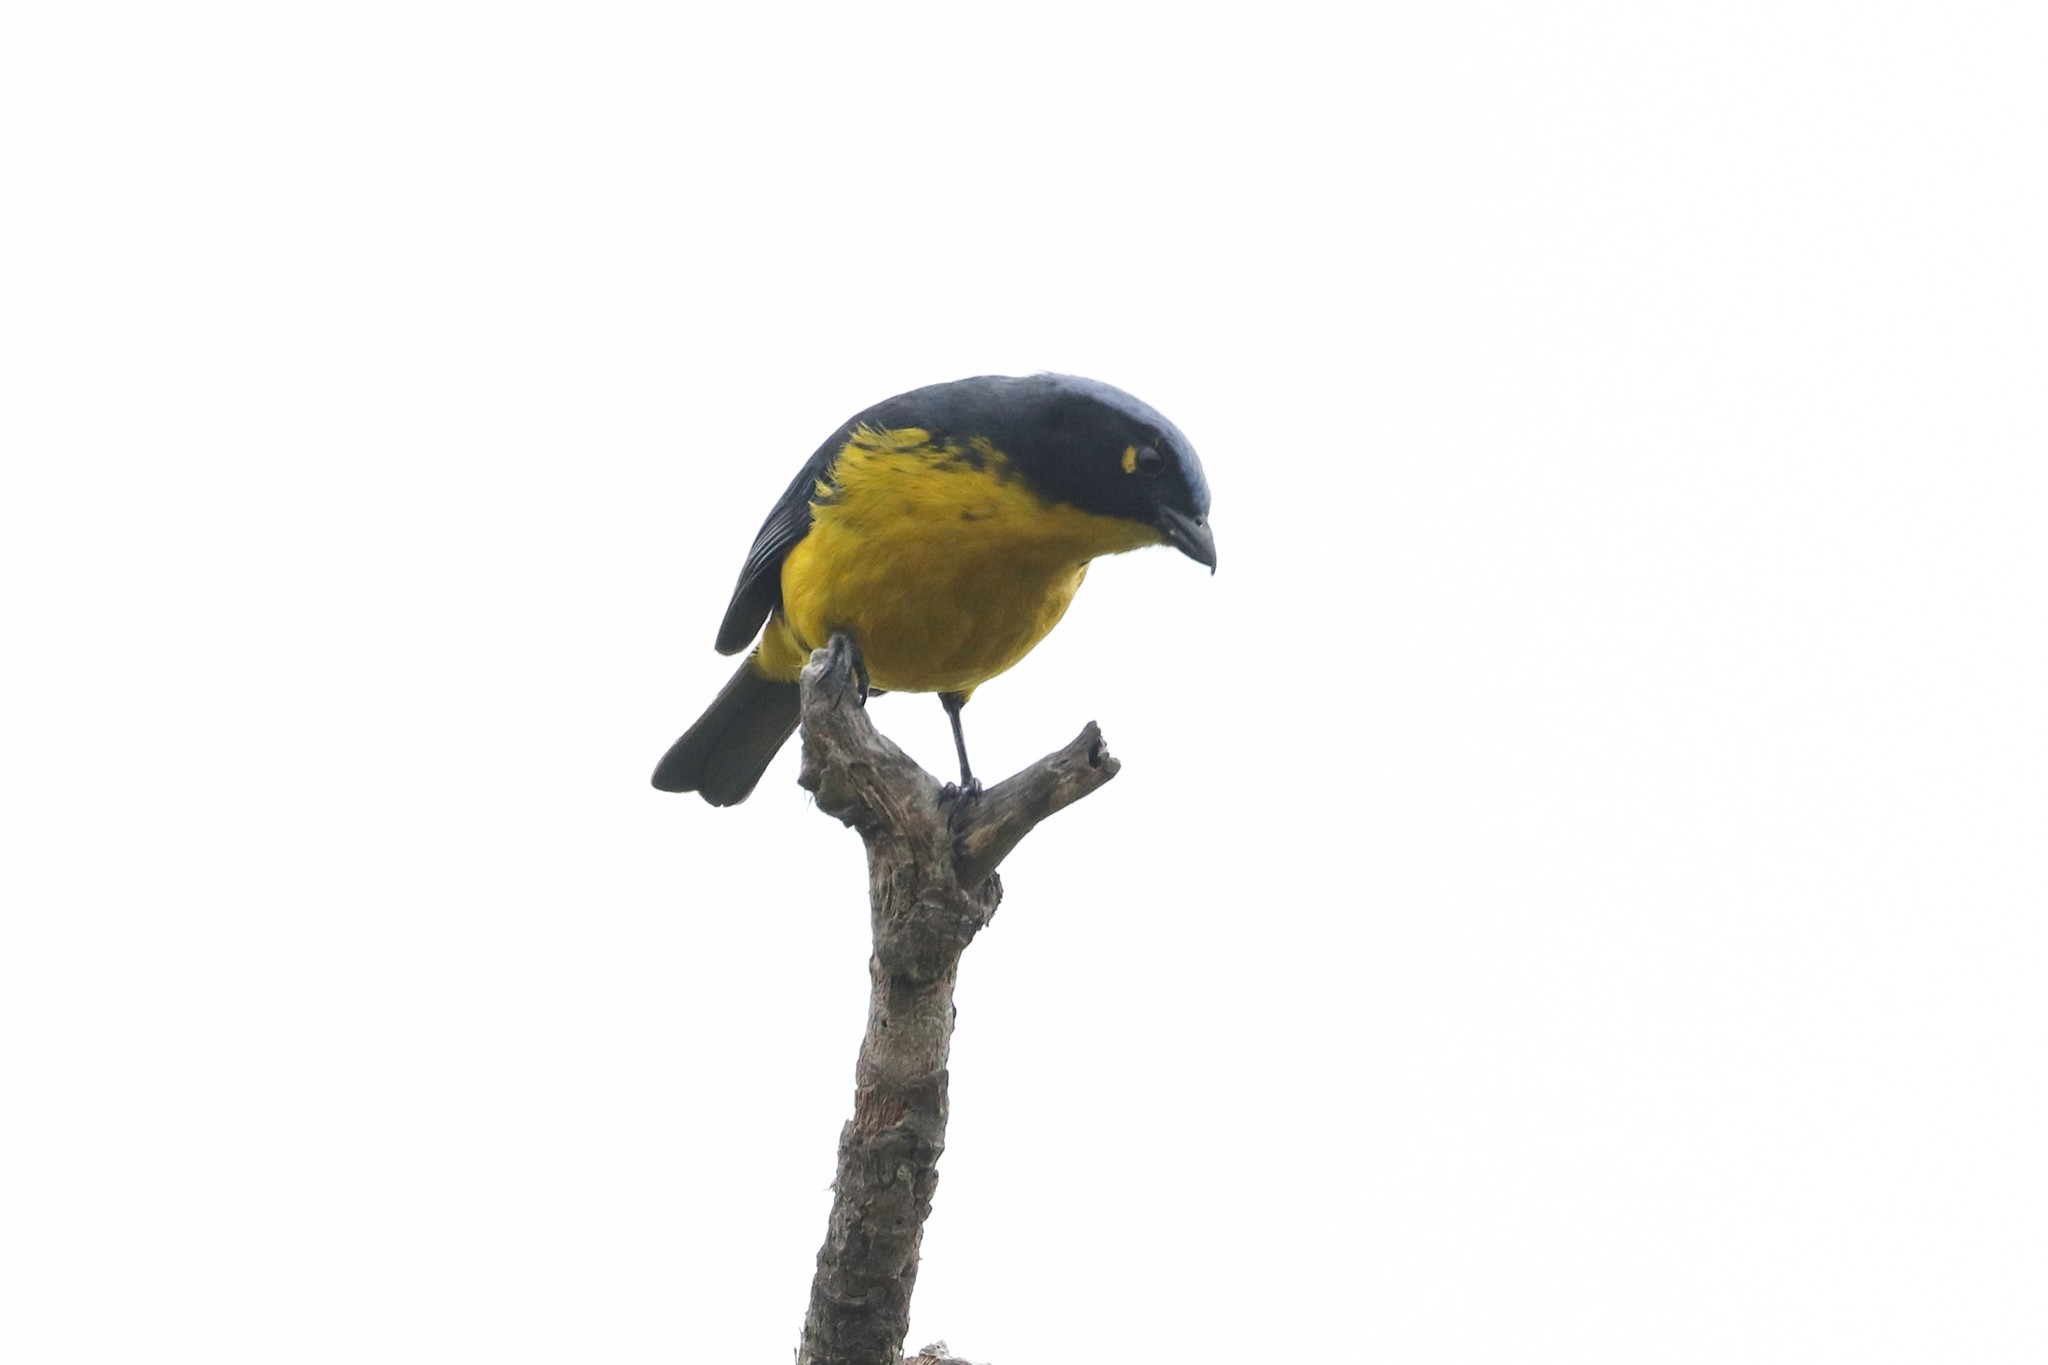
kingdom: Animalia
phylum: Chordata
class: Aves
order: Passeriformes
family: Thraupidae
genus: Anisognathus
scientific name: Anisognathus melanogenys
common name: Santa marta mountain tanager
